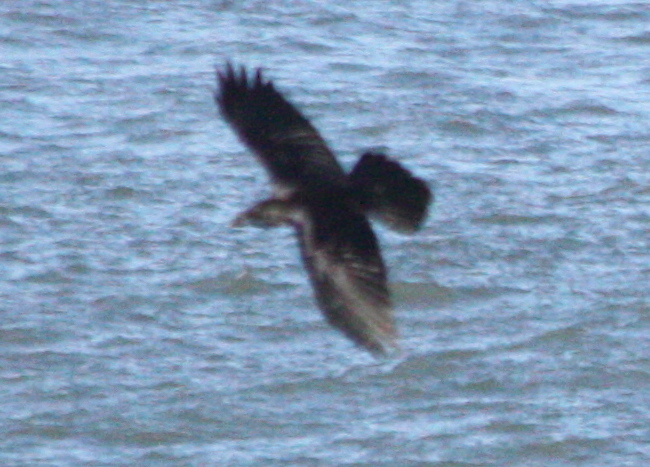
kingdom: Animalia
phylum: Chordata
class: Aves
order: Passeriformes
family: Corvidae
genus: Corvus
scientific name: Corvus corax
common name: Common raven
